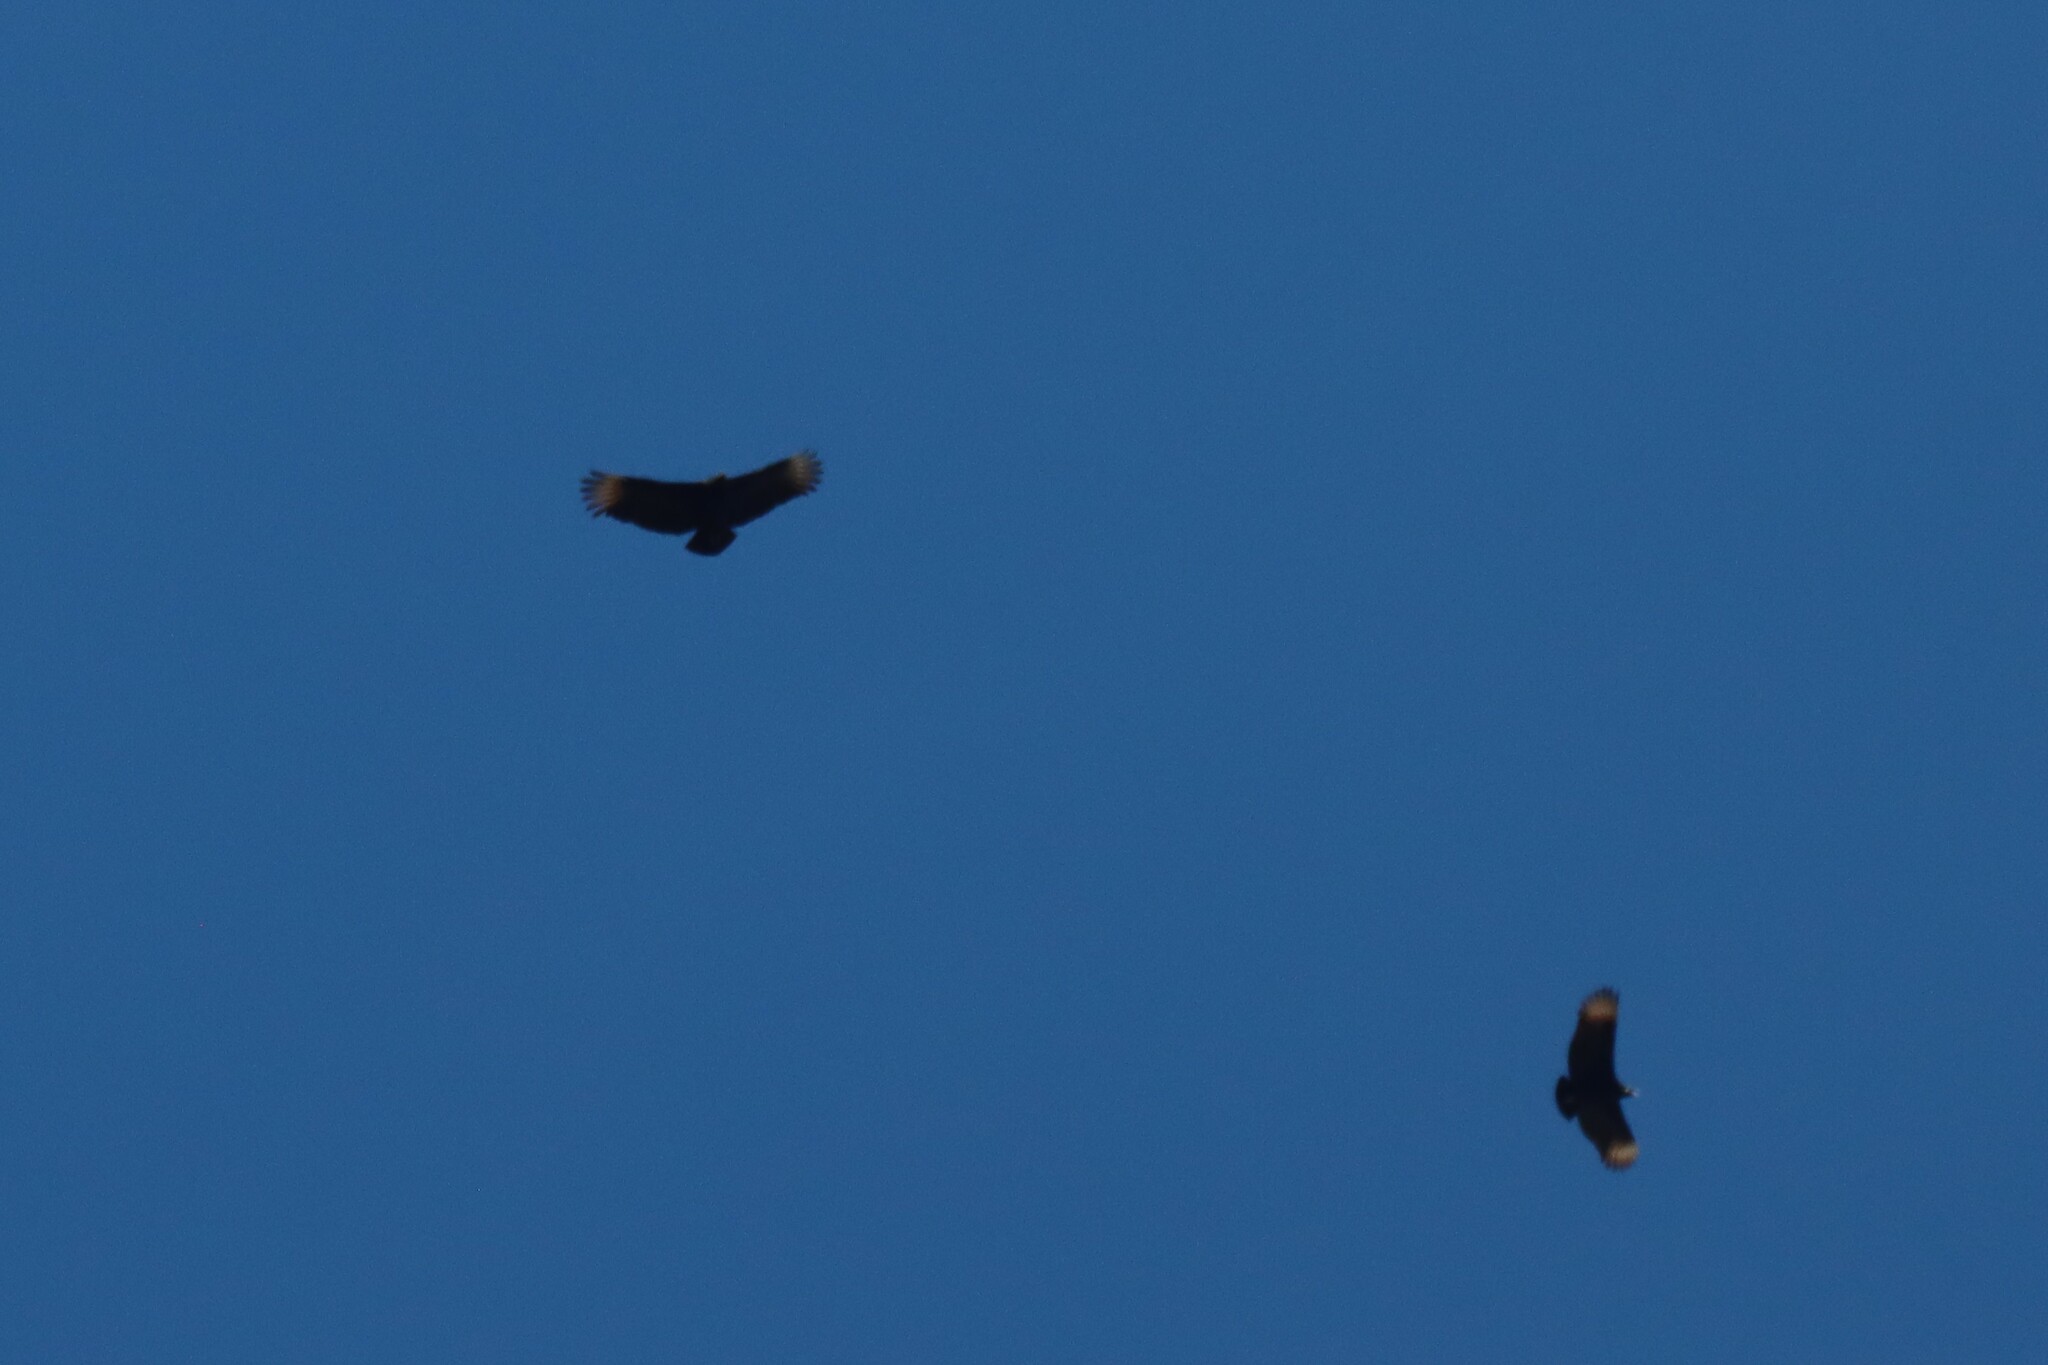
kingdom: Animalia
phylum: Chordata
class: Aves
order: Accipitriformes
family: Cathartidae
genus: Coragyps
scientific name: Coragyps atratus
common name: Black vulture
